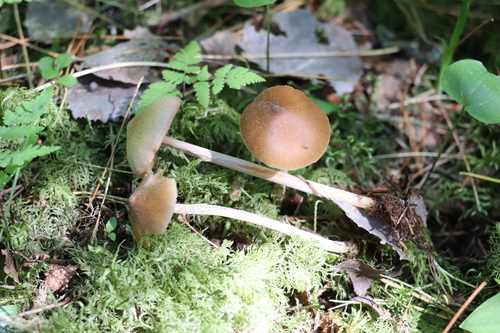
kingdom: Fungi
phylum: Basidiomycota
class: Agaricomycetes
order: Agaricales
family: Entolomataceae
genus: Entoloma
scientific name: Entoloma lanuginosipes
